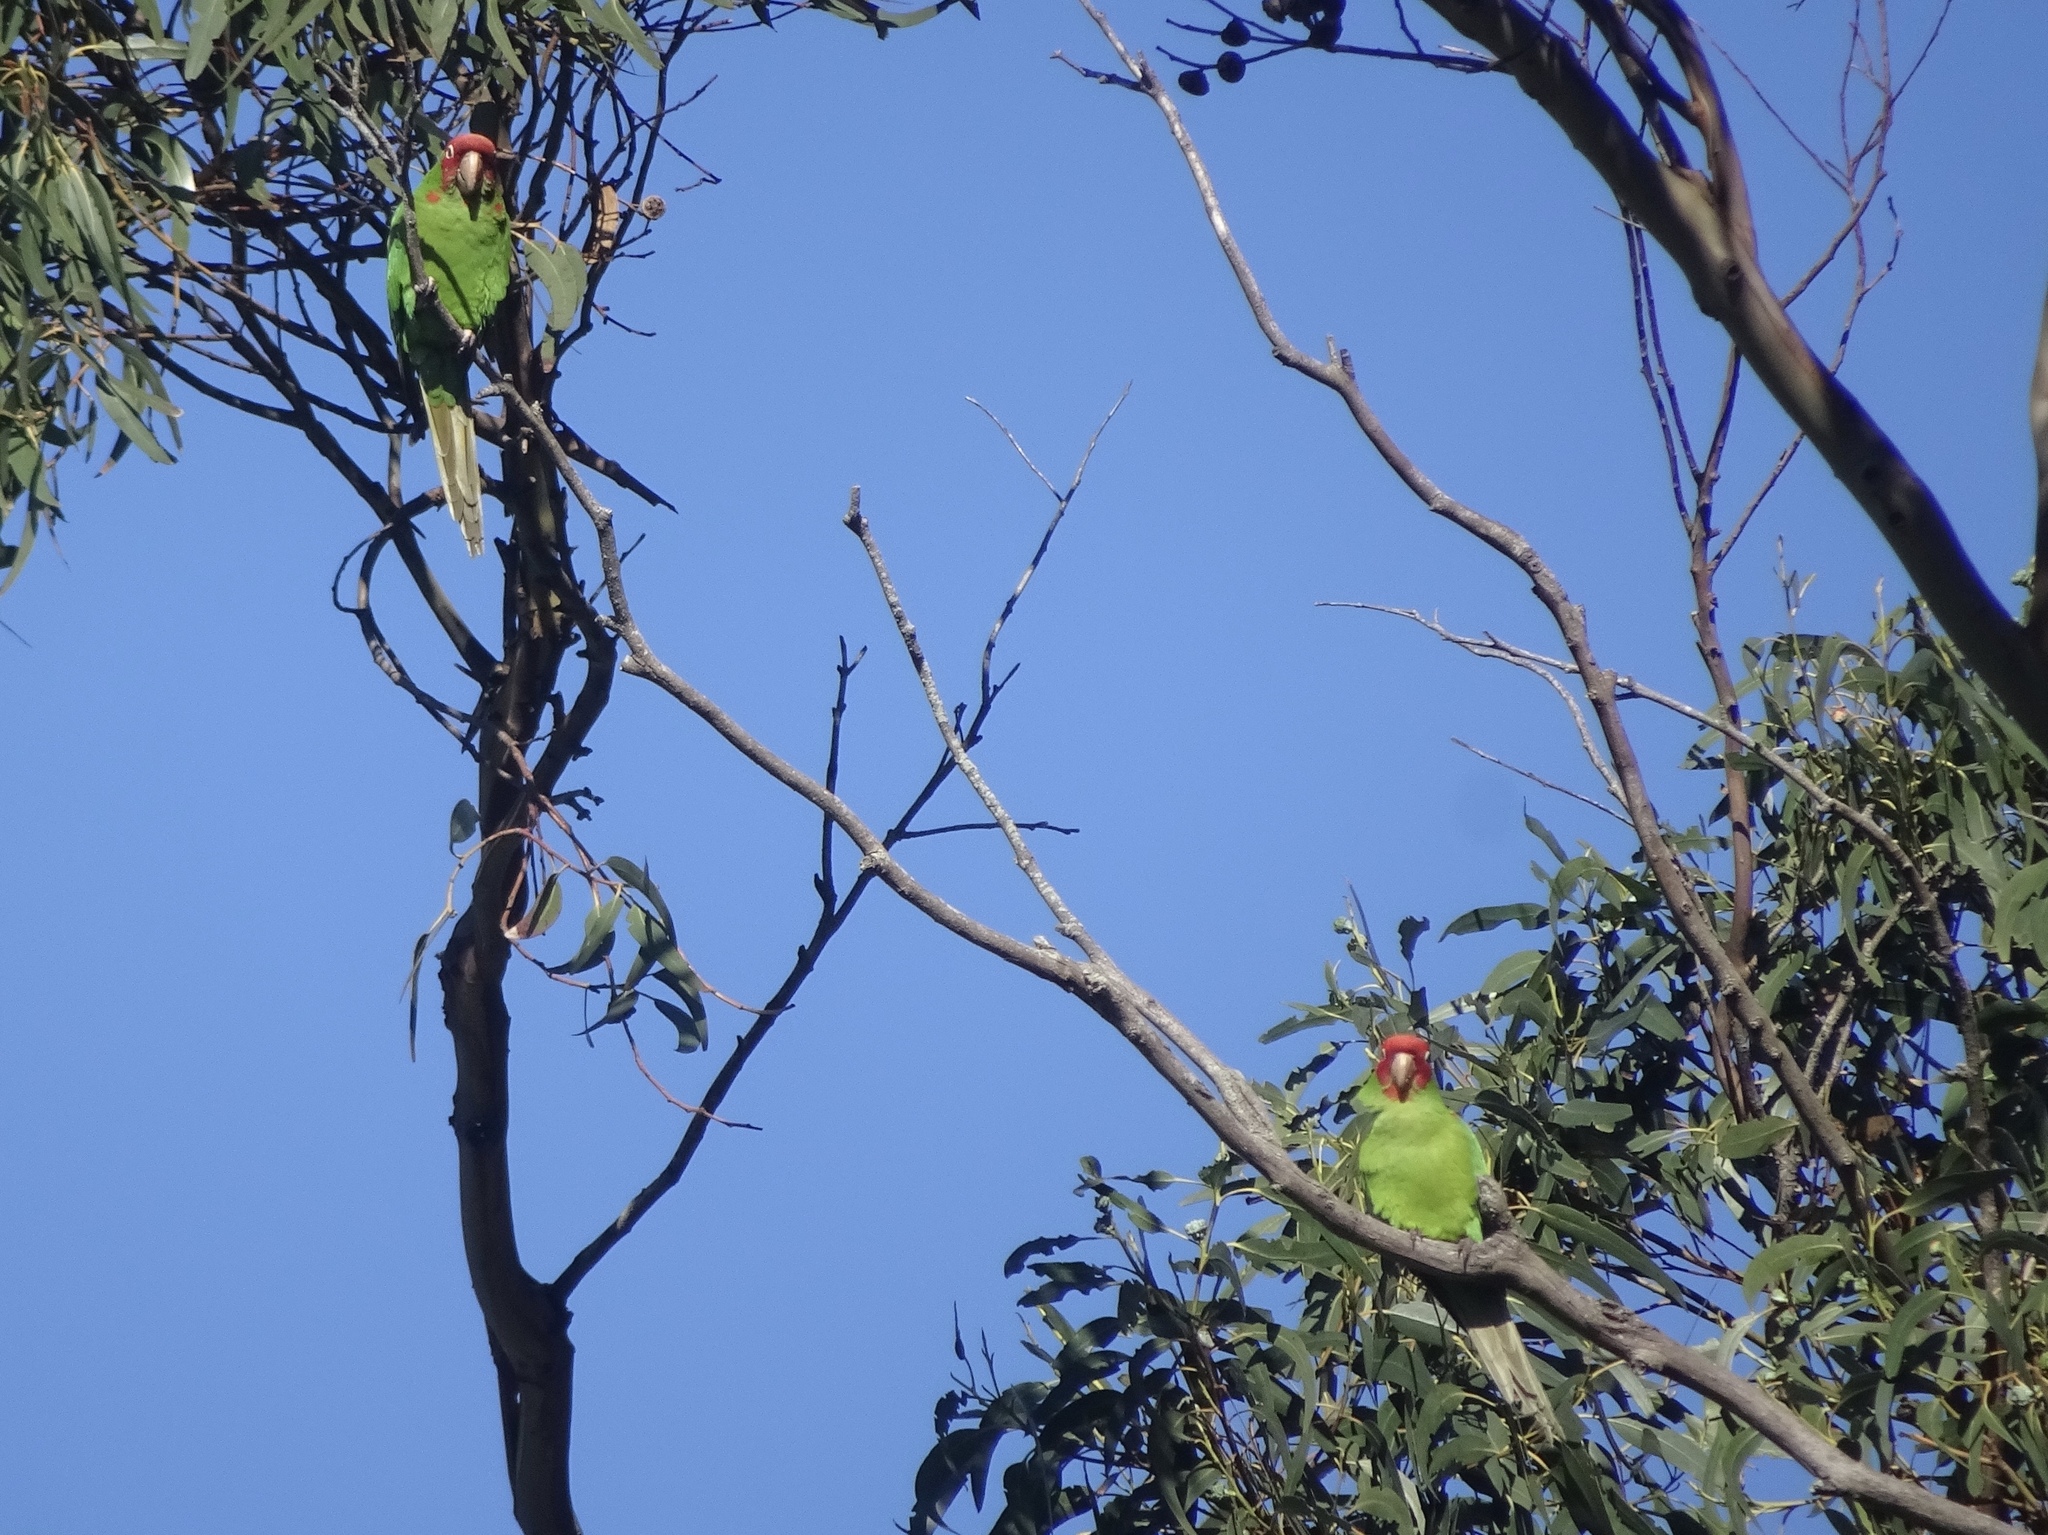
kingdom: Animalia
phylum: Chordata
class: Aves
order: Psittaciformes
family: Psittacidae
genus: Aratinga
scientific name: Aratinga erythrogenys
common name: Red-masked parakeet
